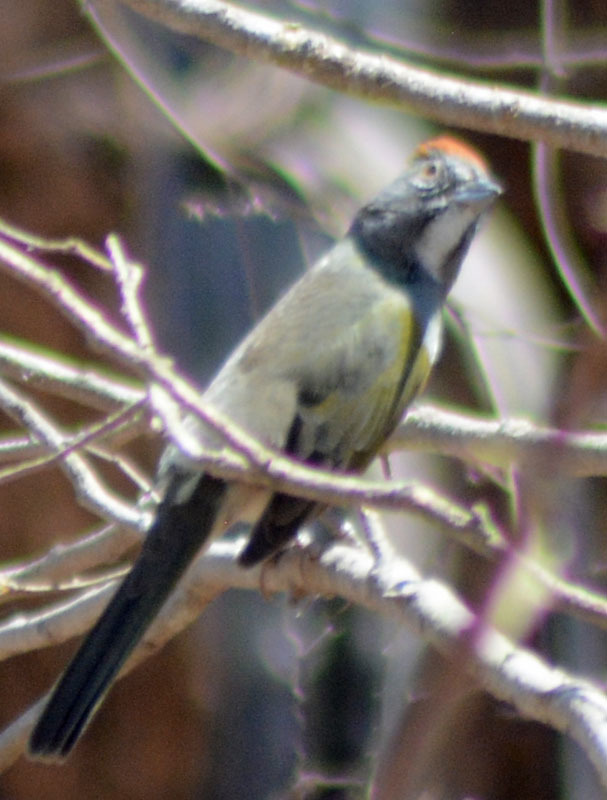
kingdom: Animalia
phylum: Chordata
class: Aves
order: Passeriformes
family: Passerellidae
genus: Pipilo
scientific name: Pipilo chlorurus
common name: Green-tailed towhee
